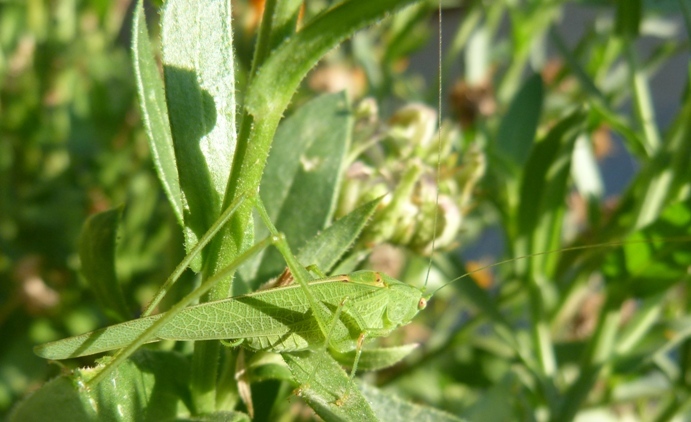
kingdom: Animalia
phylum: Arthropoda
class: Insecta
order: Orthoptera
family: Tettigoniidae
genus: Phaneroptera
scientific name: Phaneroptera nana
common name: Southern sickle bush-cricket
